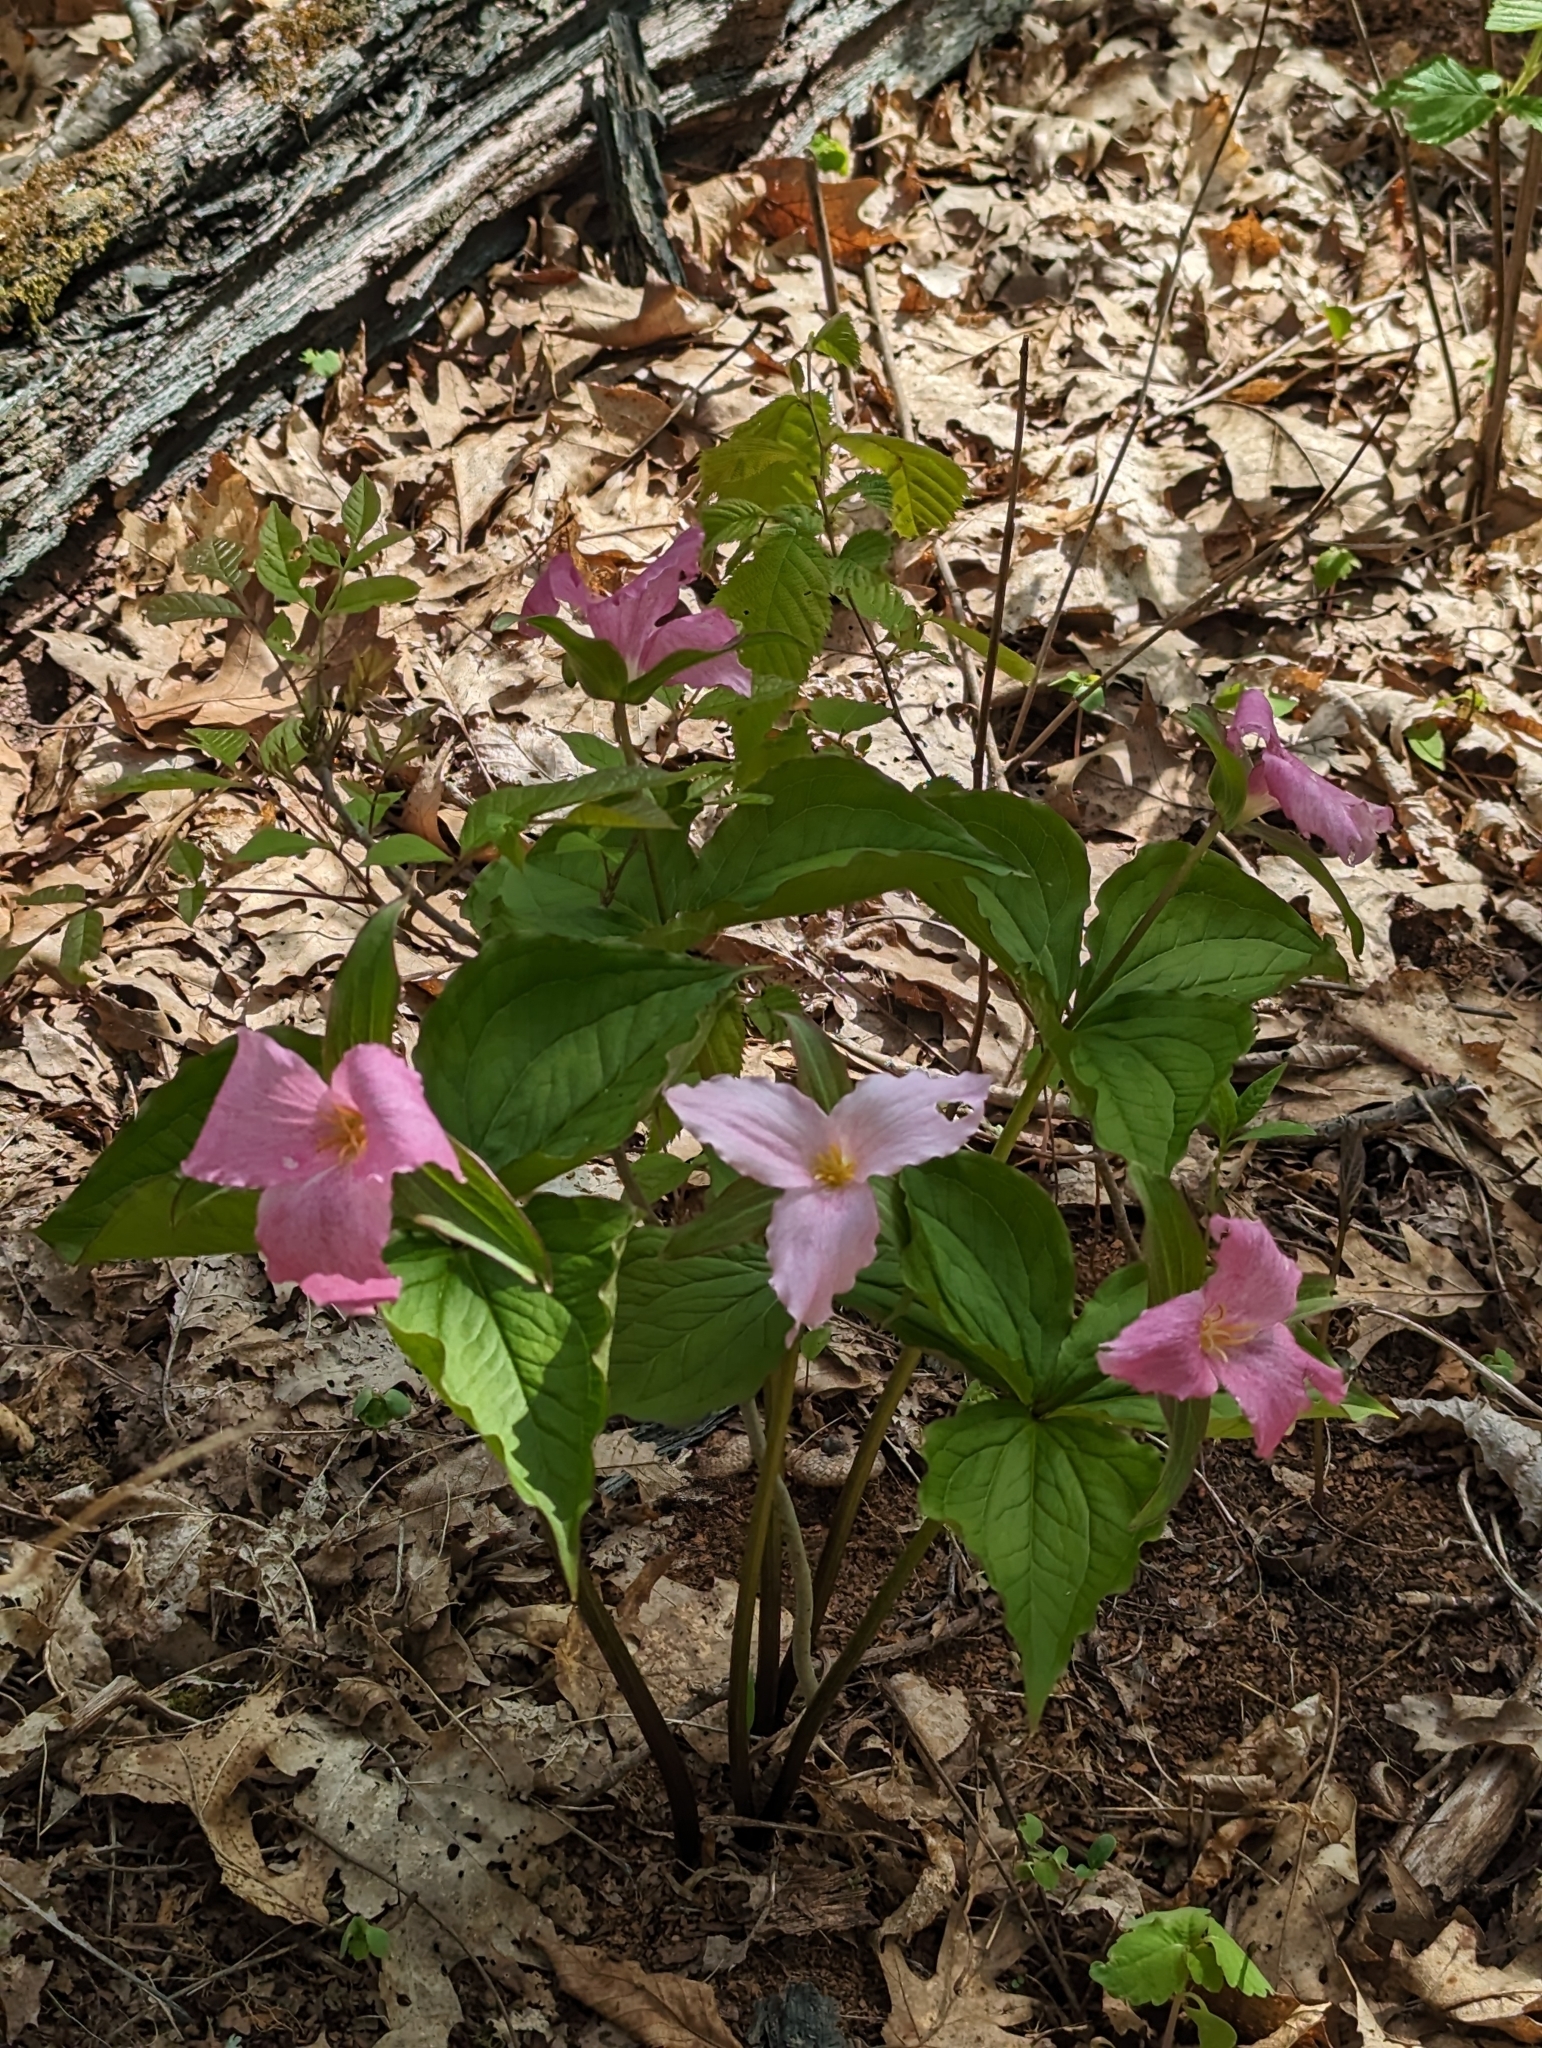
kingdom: Plantae
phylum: Tracheophyta
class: Liliopsida
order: Liliales
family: Melanthiaceae
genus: Trillium
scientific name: Trillium grandiflorum
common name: Great white trillium
